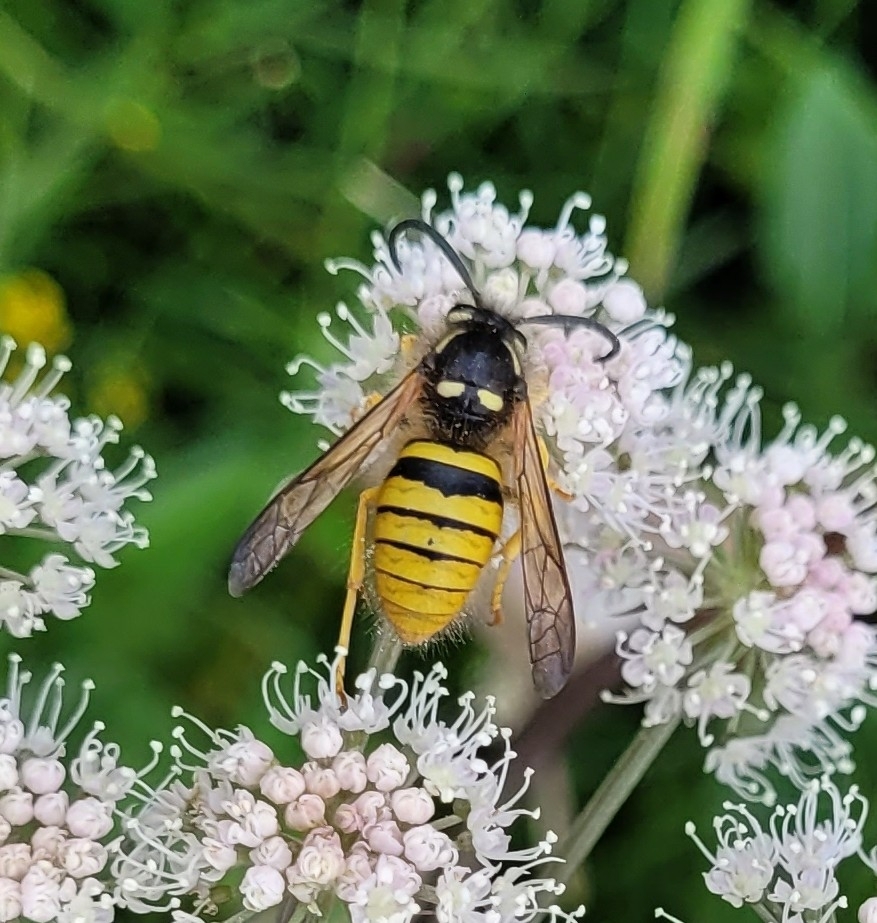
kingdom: Animalia
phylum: Arthropoda
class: Insecta
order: Hymenoptera
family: Vespidae
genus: Dolichovespula
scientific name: Dolichovespula sylvestris
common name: Tree wasp
